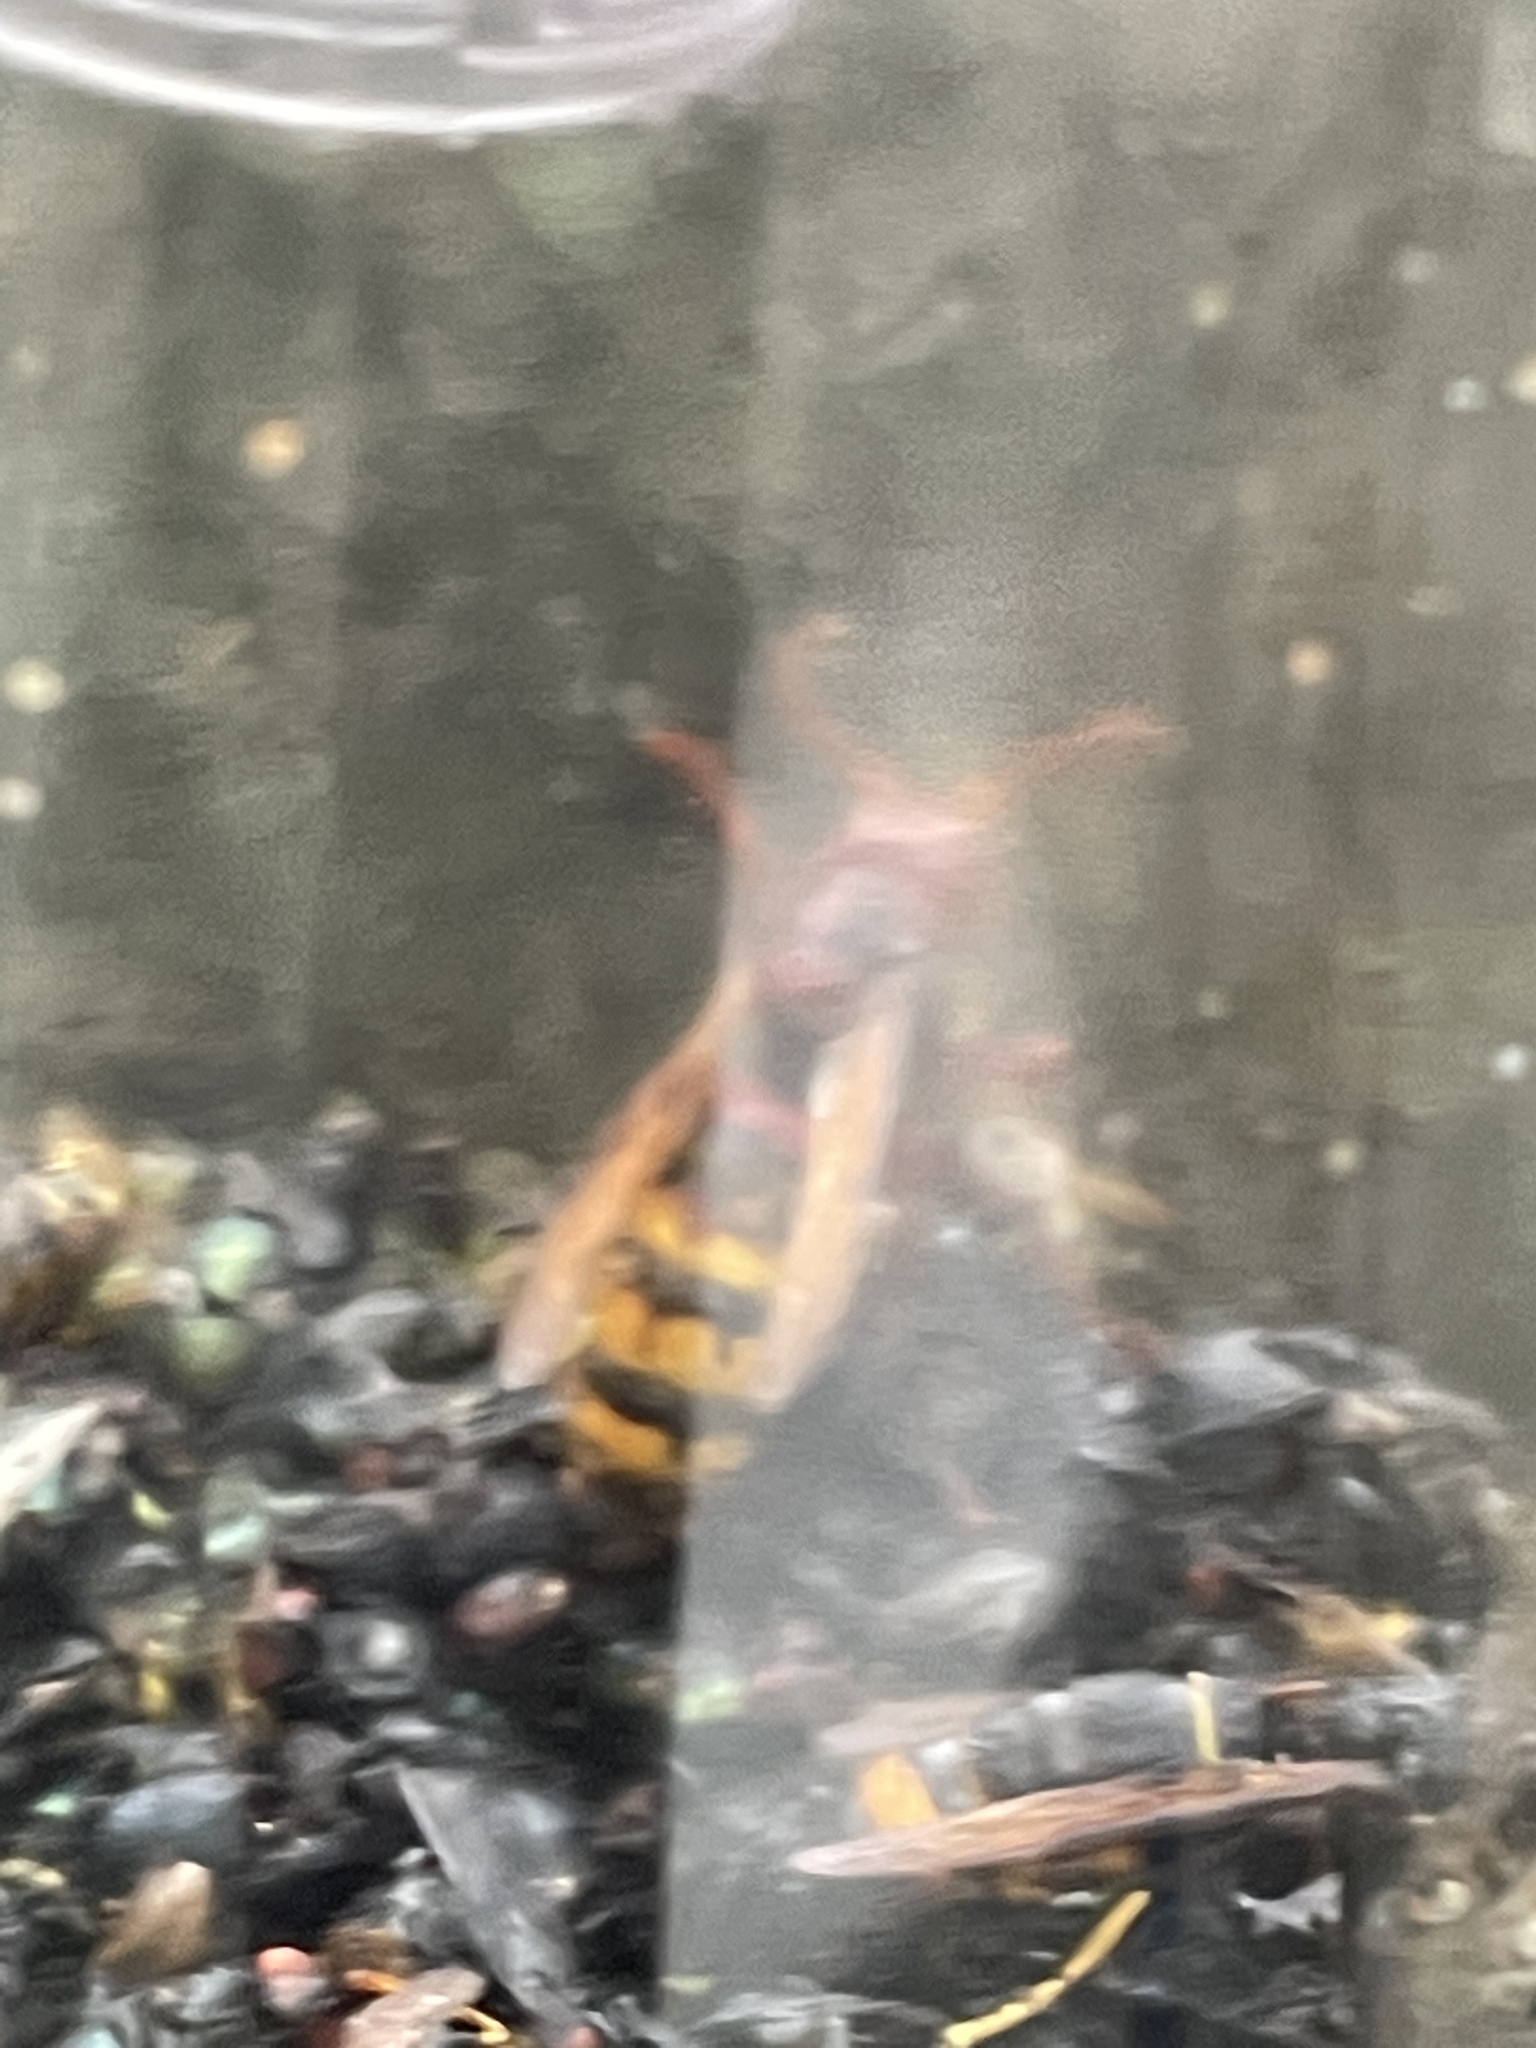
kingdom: Animalia
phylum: Arthropoda
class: Insecta
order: Hymenoptera
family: Vespidae
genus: Vespa
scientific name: Vespa crabro
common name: Hornet
